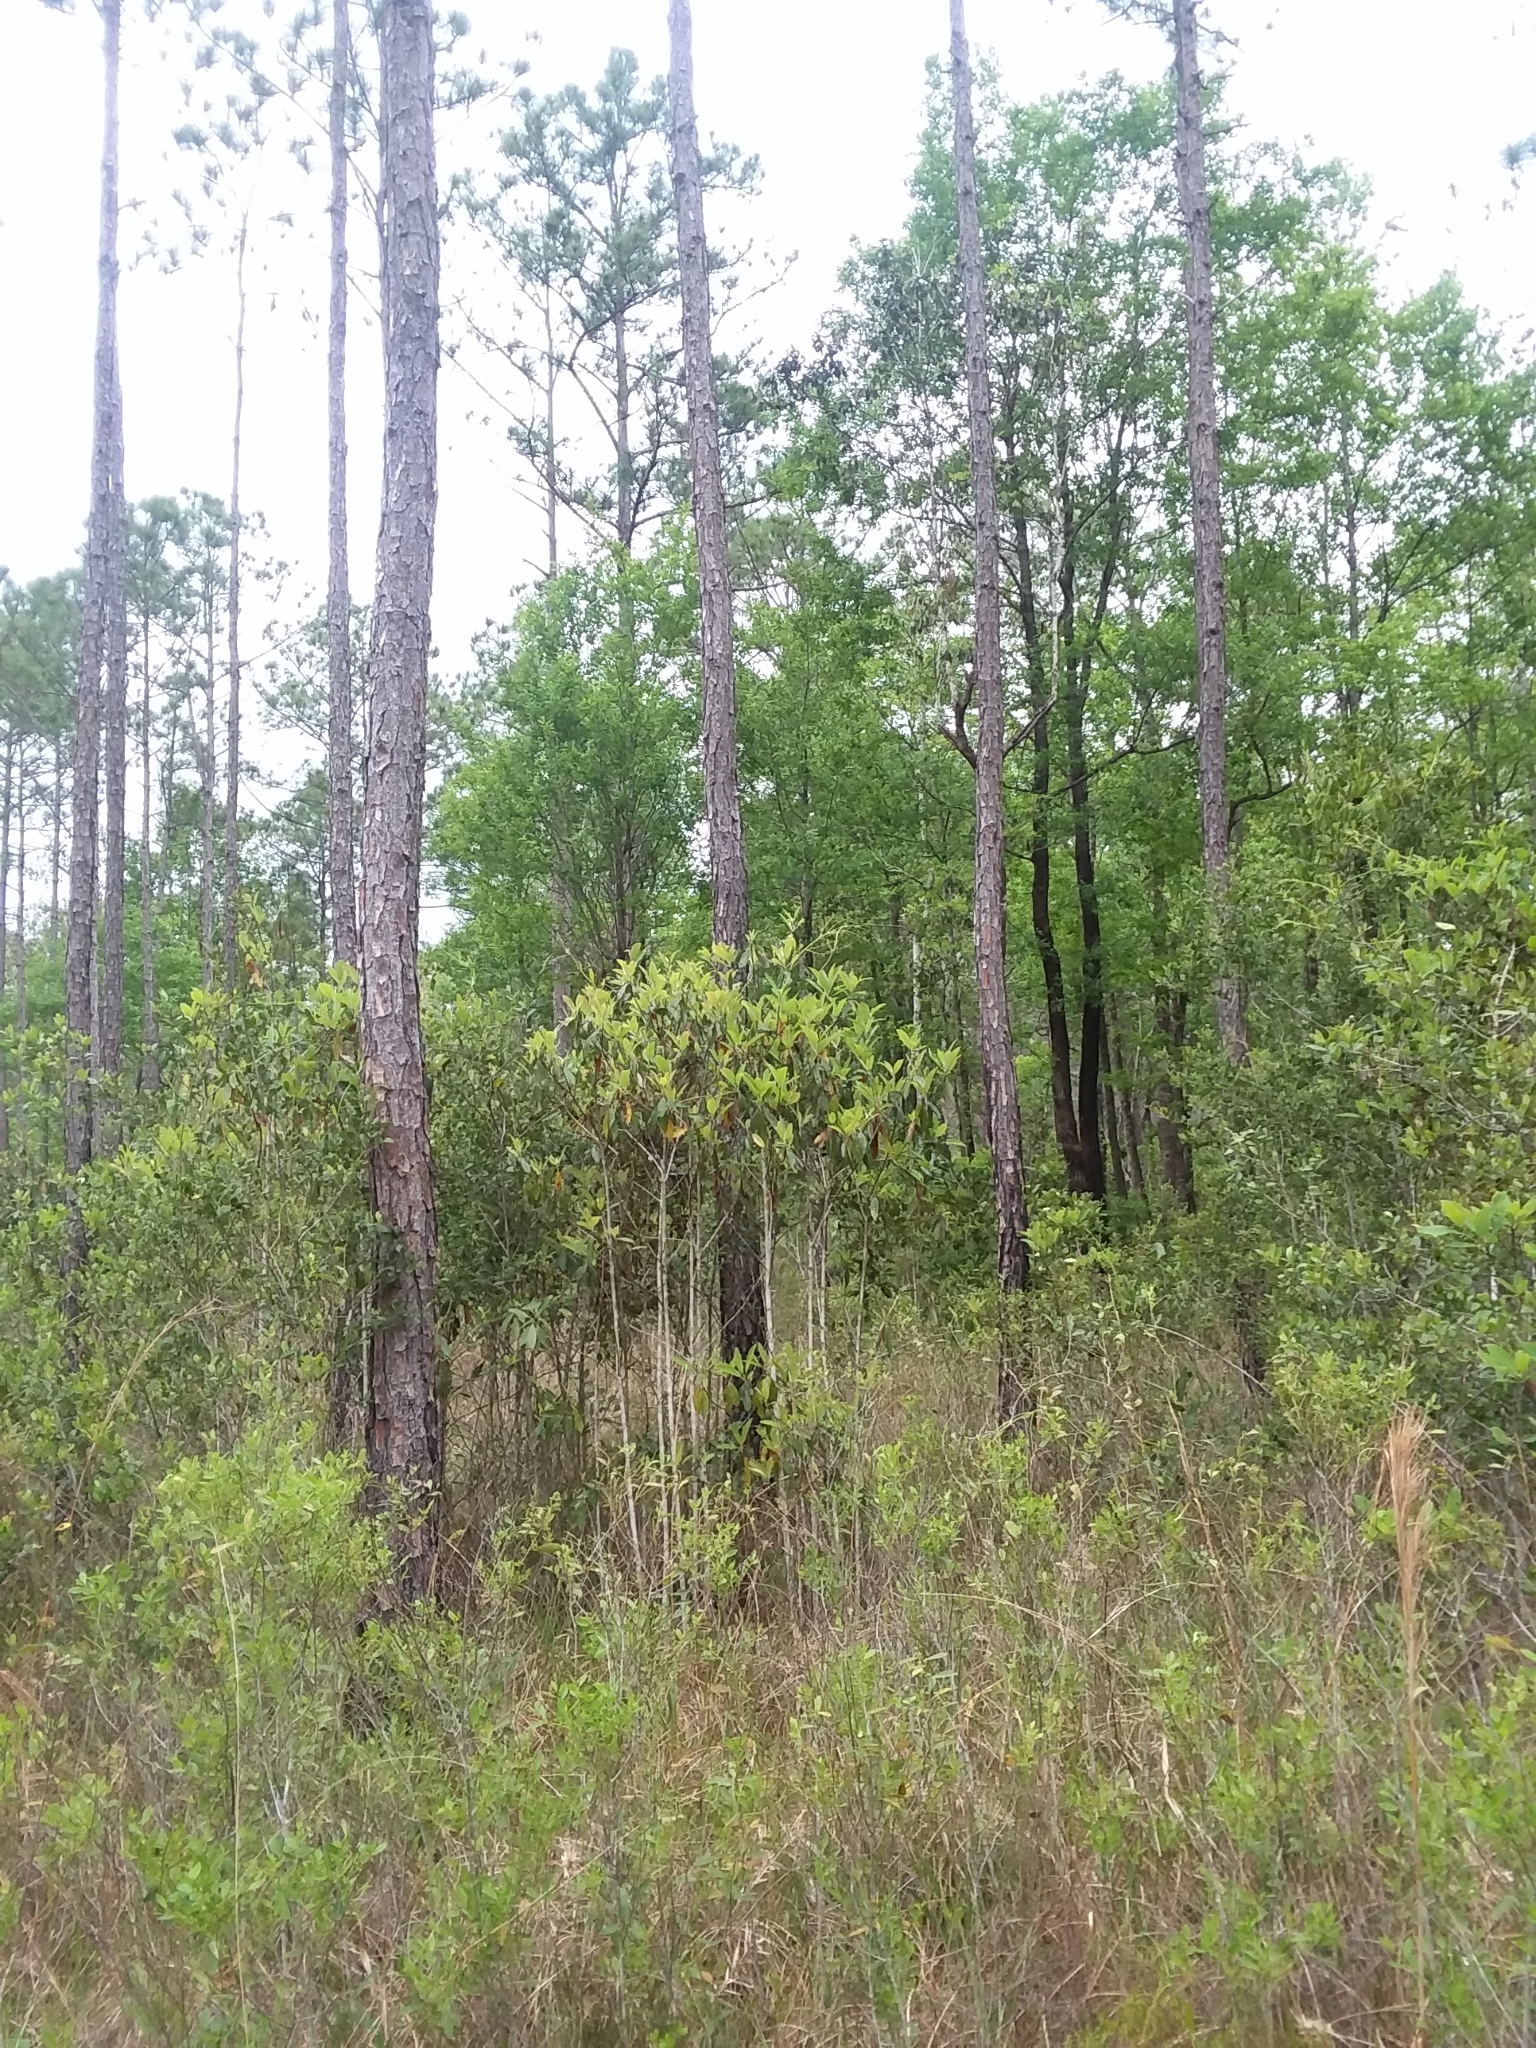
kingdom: Plantae
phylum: Tracheophyta
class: Magnoliopsida
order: Magnoliales
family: Magnoliaceae
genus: Magnolia
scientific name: Magnolia virginiana
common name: Swamp bay
